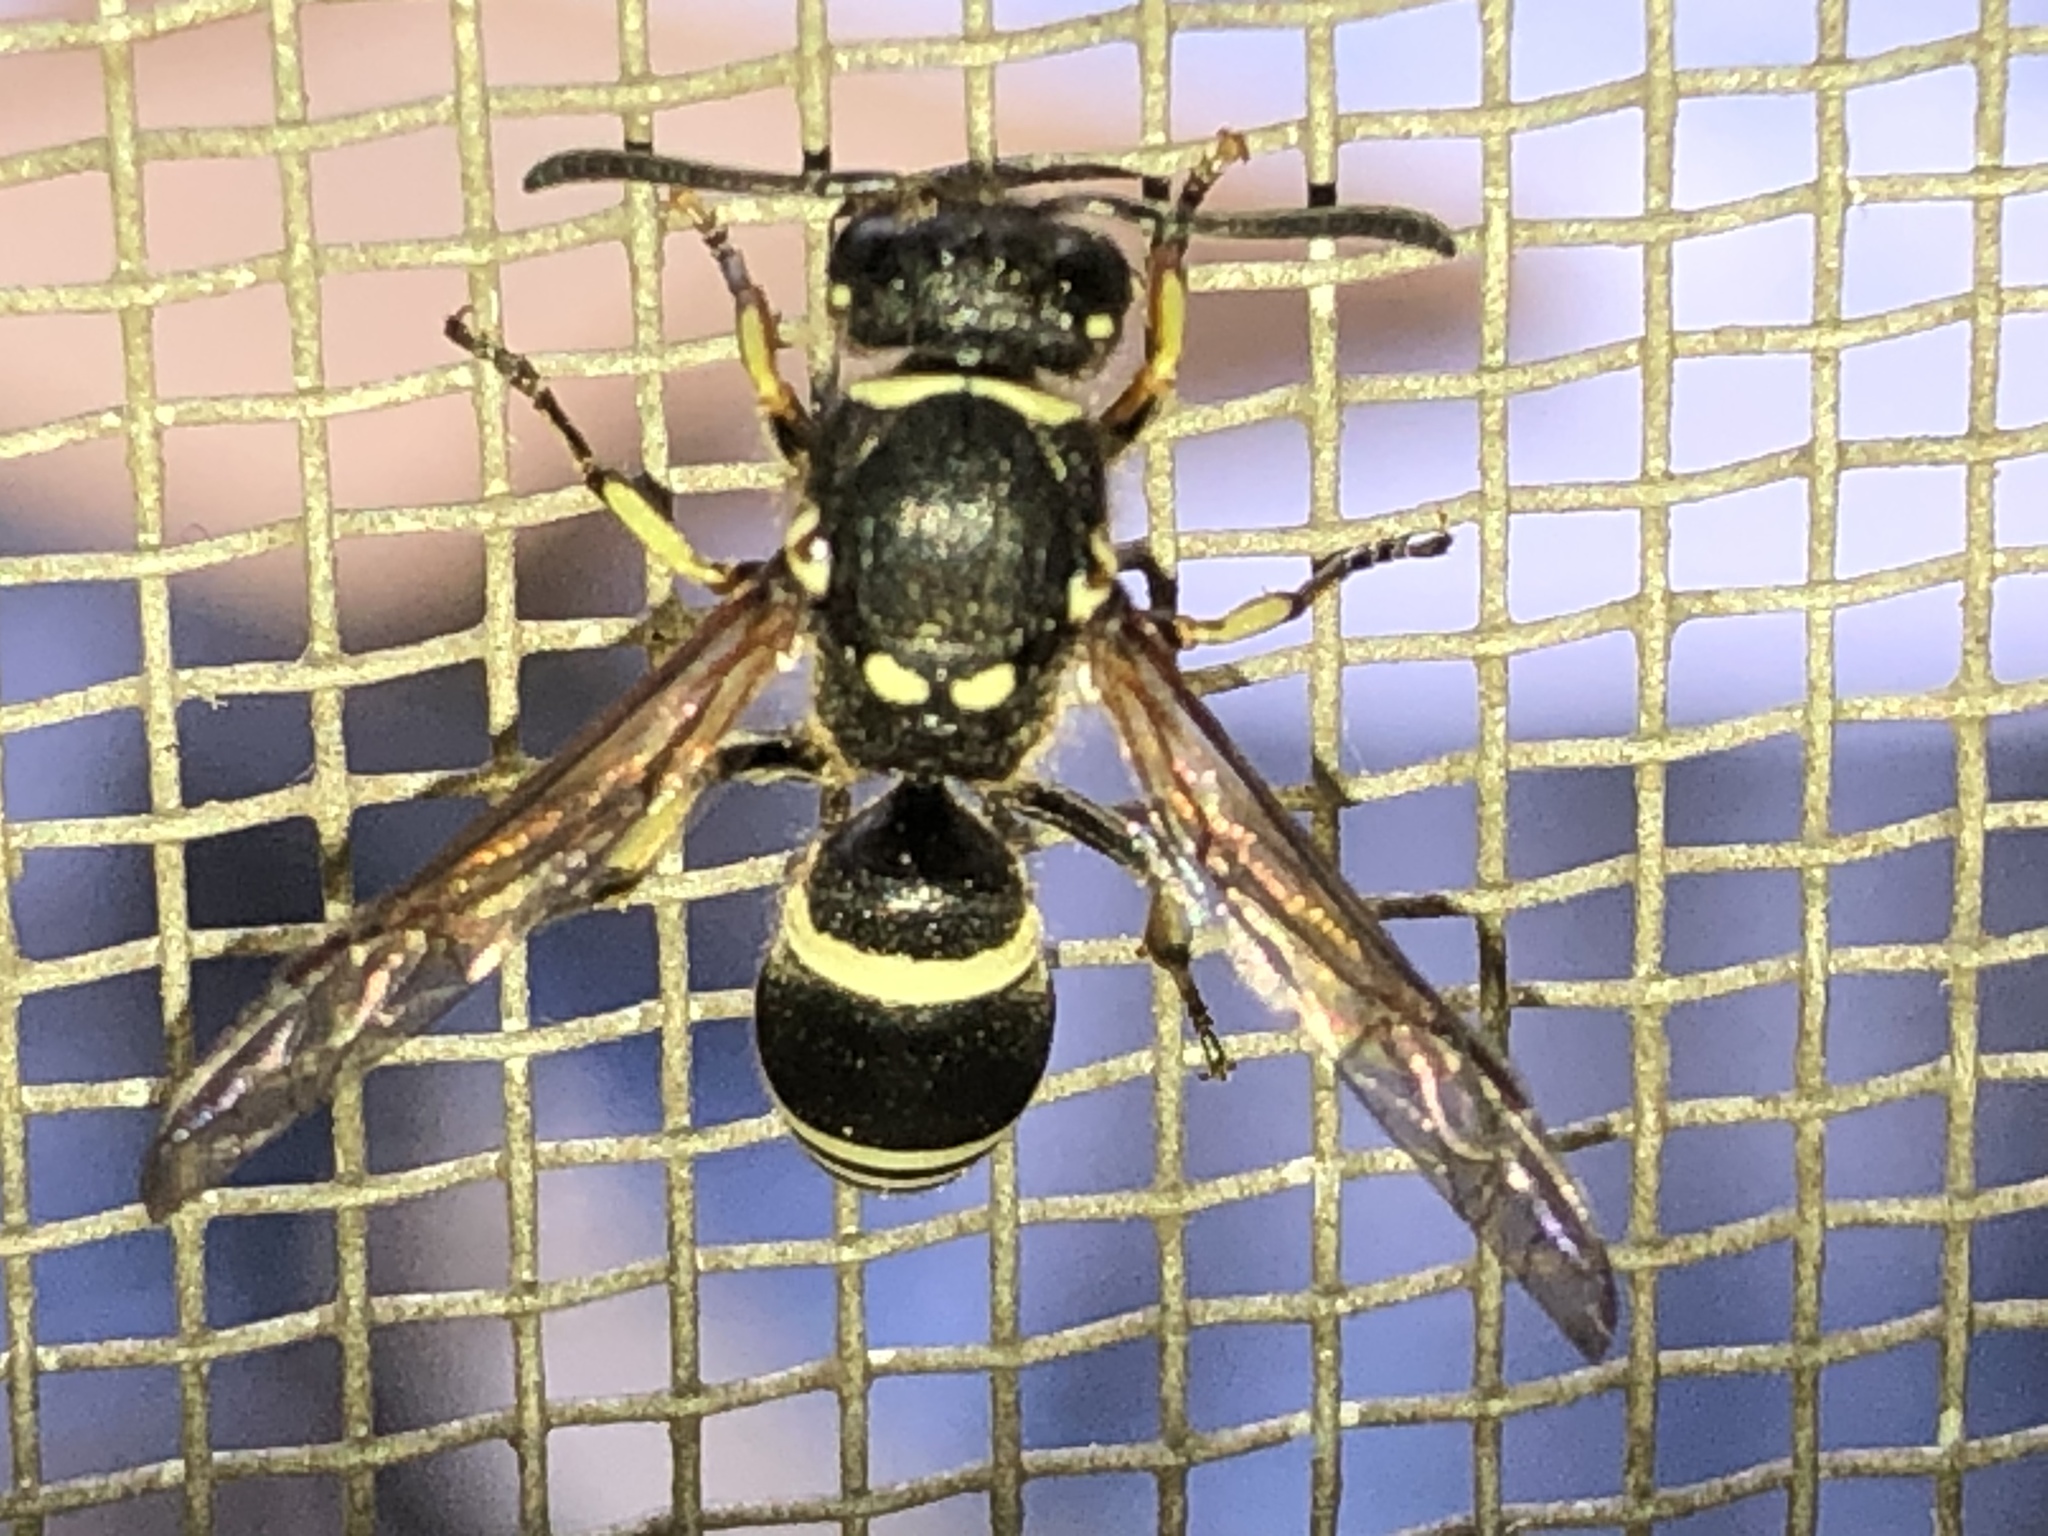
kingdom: Animalia
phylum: Arthropoda
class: Insecta
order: Hymenoptera
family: Vespidae
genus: Ancistrocerus
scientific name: Ancistrocerus
